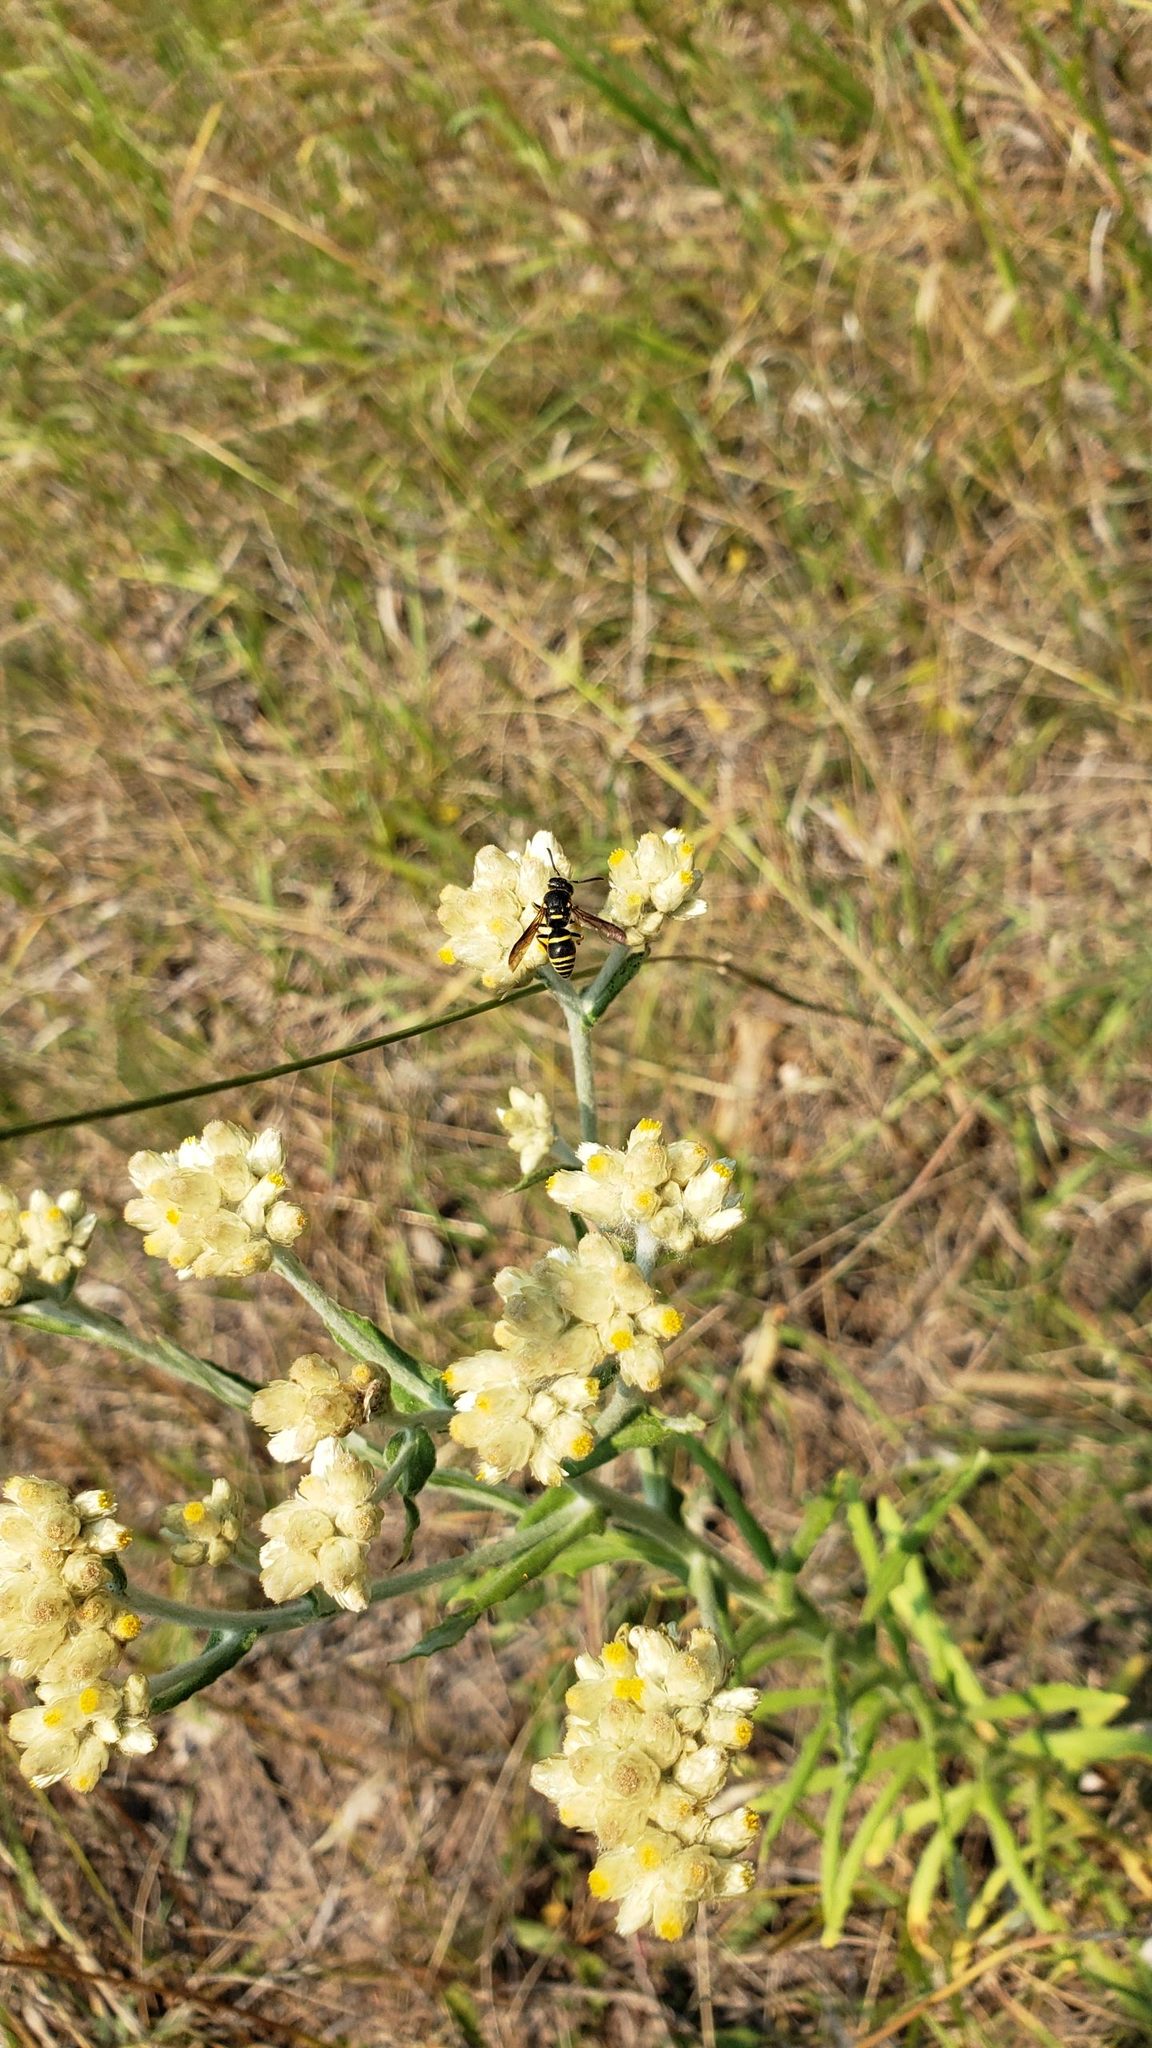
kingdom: Animalia
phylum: Arthropoda
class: Insecta
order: Hymenoptera
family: Eumenidae
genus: Euodynerus
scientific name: Euodynerus foraminatus
